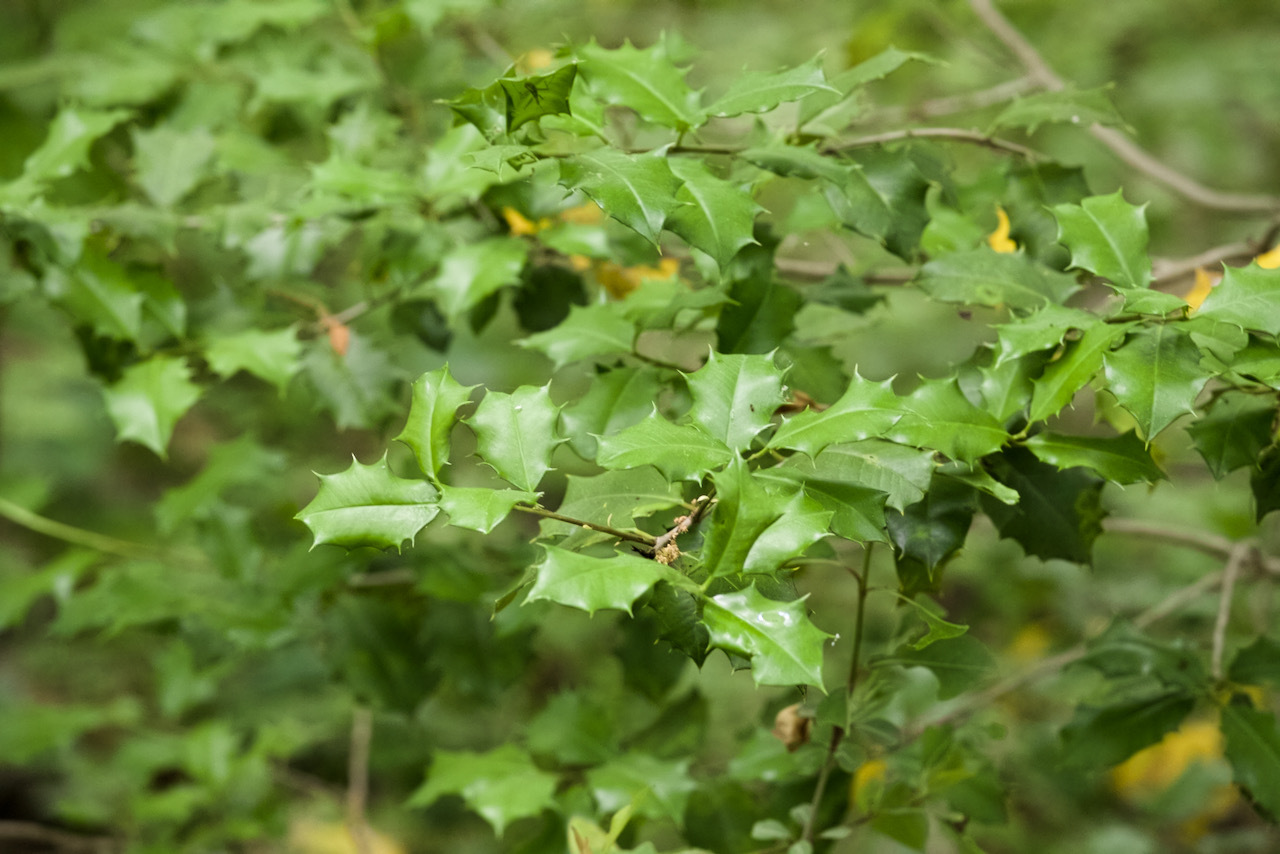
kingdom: Plantae
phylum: Tracheophyta
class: Magnoliopsida
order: Aquifoliales
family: Aquifoliaceae
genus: Ilex
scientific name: Ilex opaca
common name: American holly
